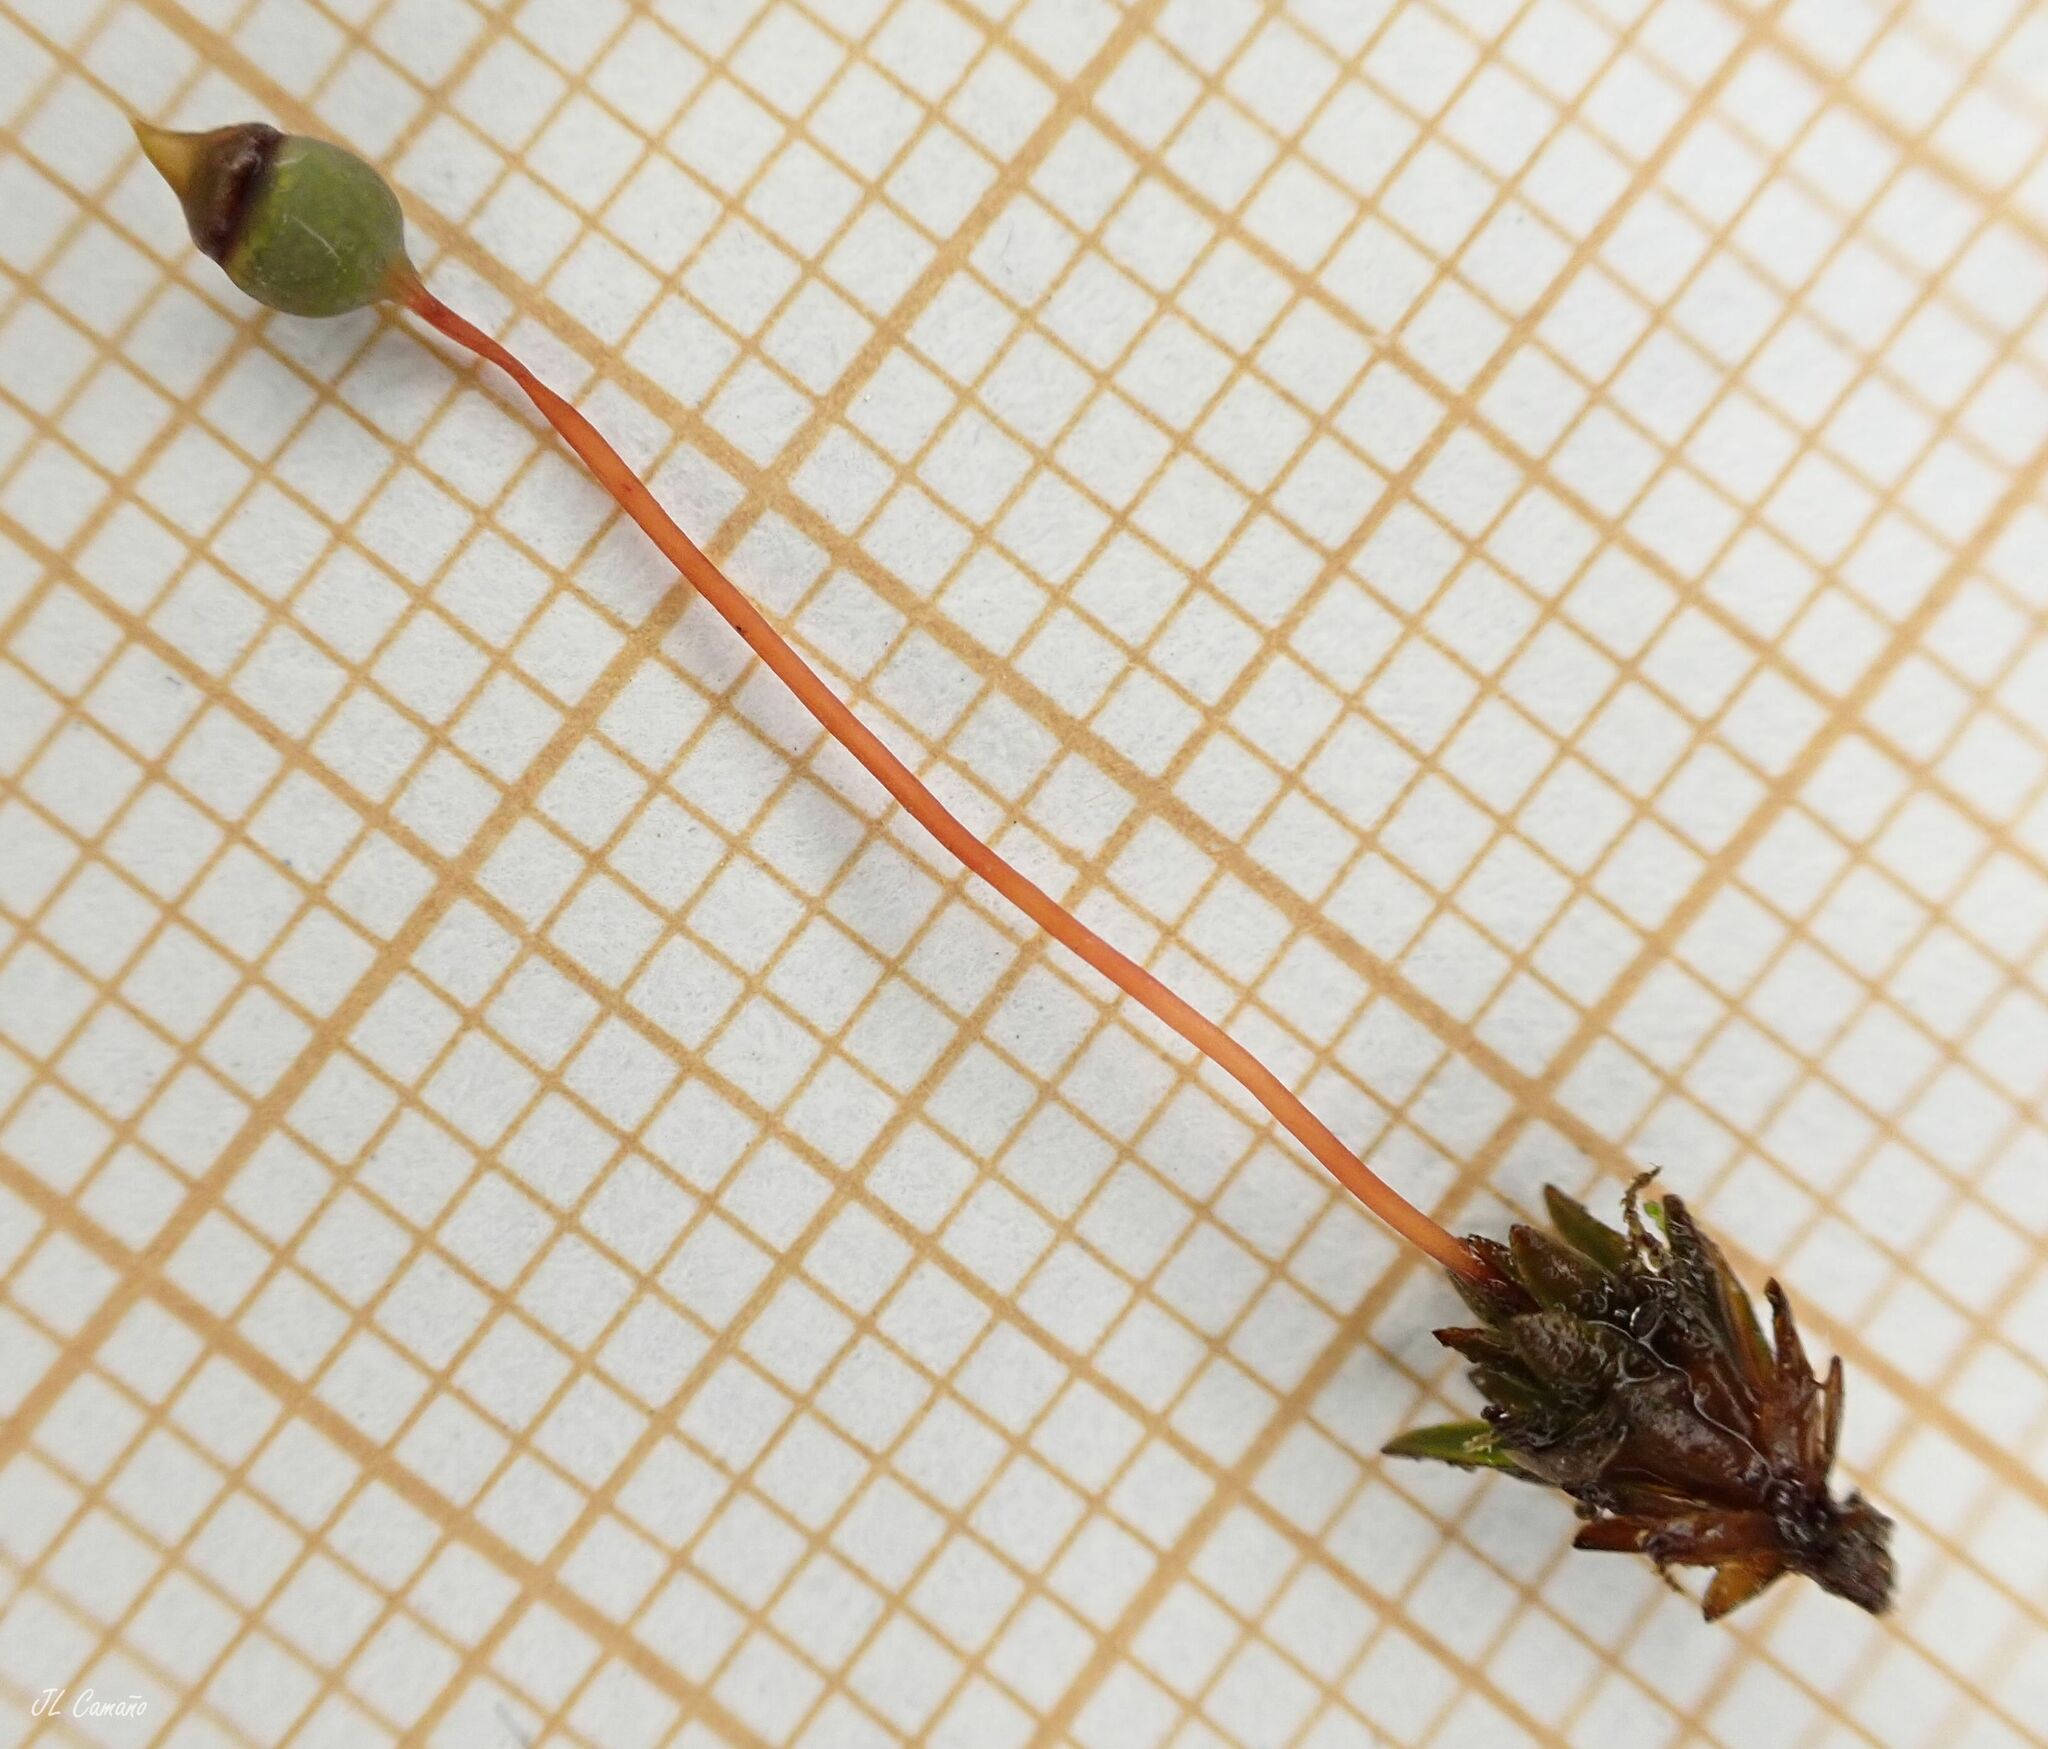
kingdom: Plantae
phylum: Bryophyta
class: Polytrichopsida
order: Polytrichales
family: Polytrichaceae
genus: Pogonatum
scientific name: Pogonatum nanum
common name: Dwarf haircap
